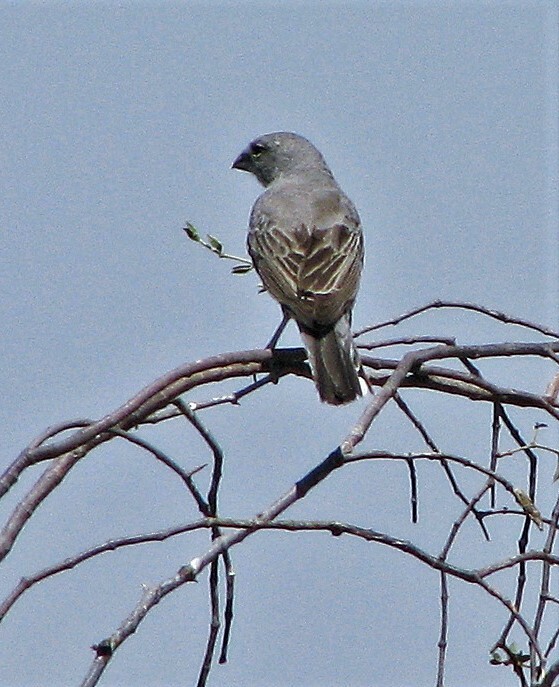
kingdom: Animalia
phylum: Chordata
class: Aves
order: Passeriformes
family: Thraupidae
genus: Diuca
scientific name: Diuca diuca
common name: Common diuca finch
